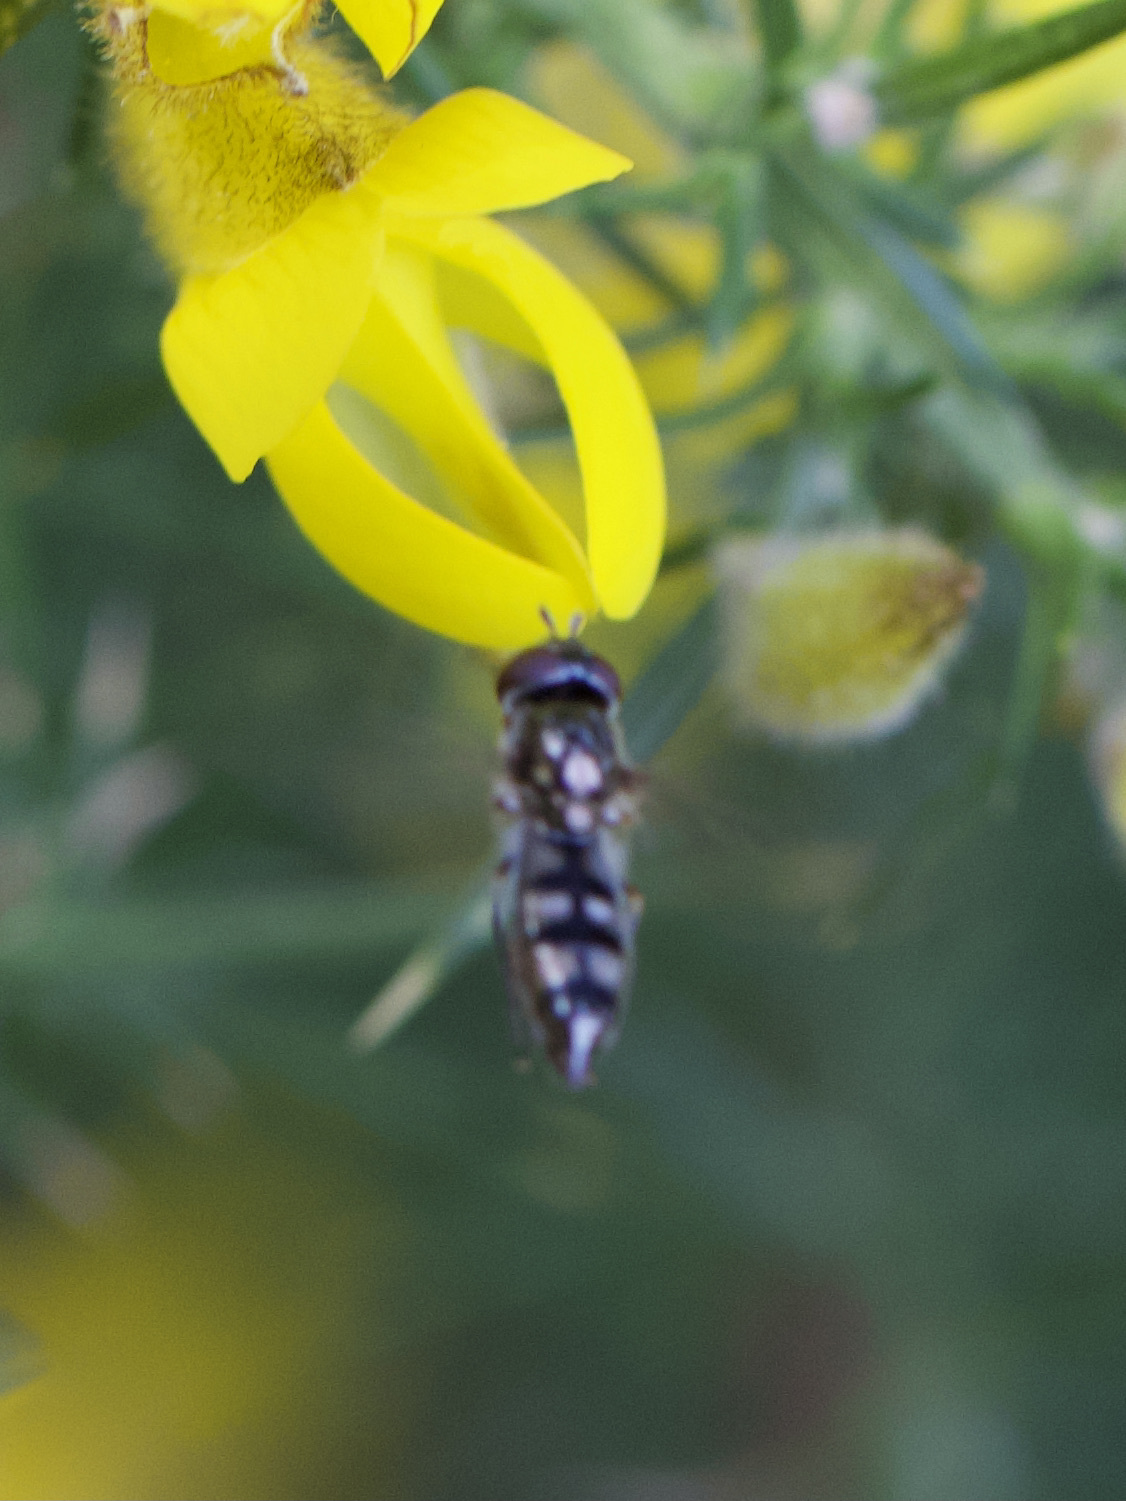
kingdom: Animalia
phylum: Arthropoda
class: Insecta
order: Diptera
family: Syrphidae
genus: Platycheirus
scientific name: Platycheirus albimanus
